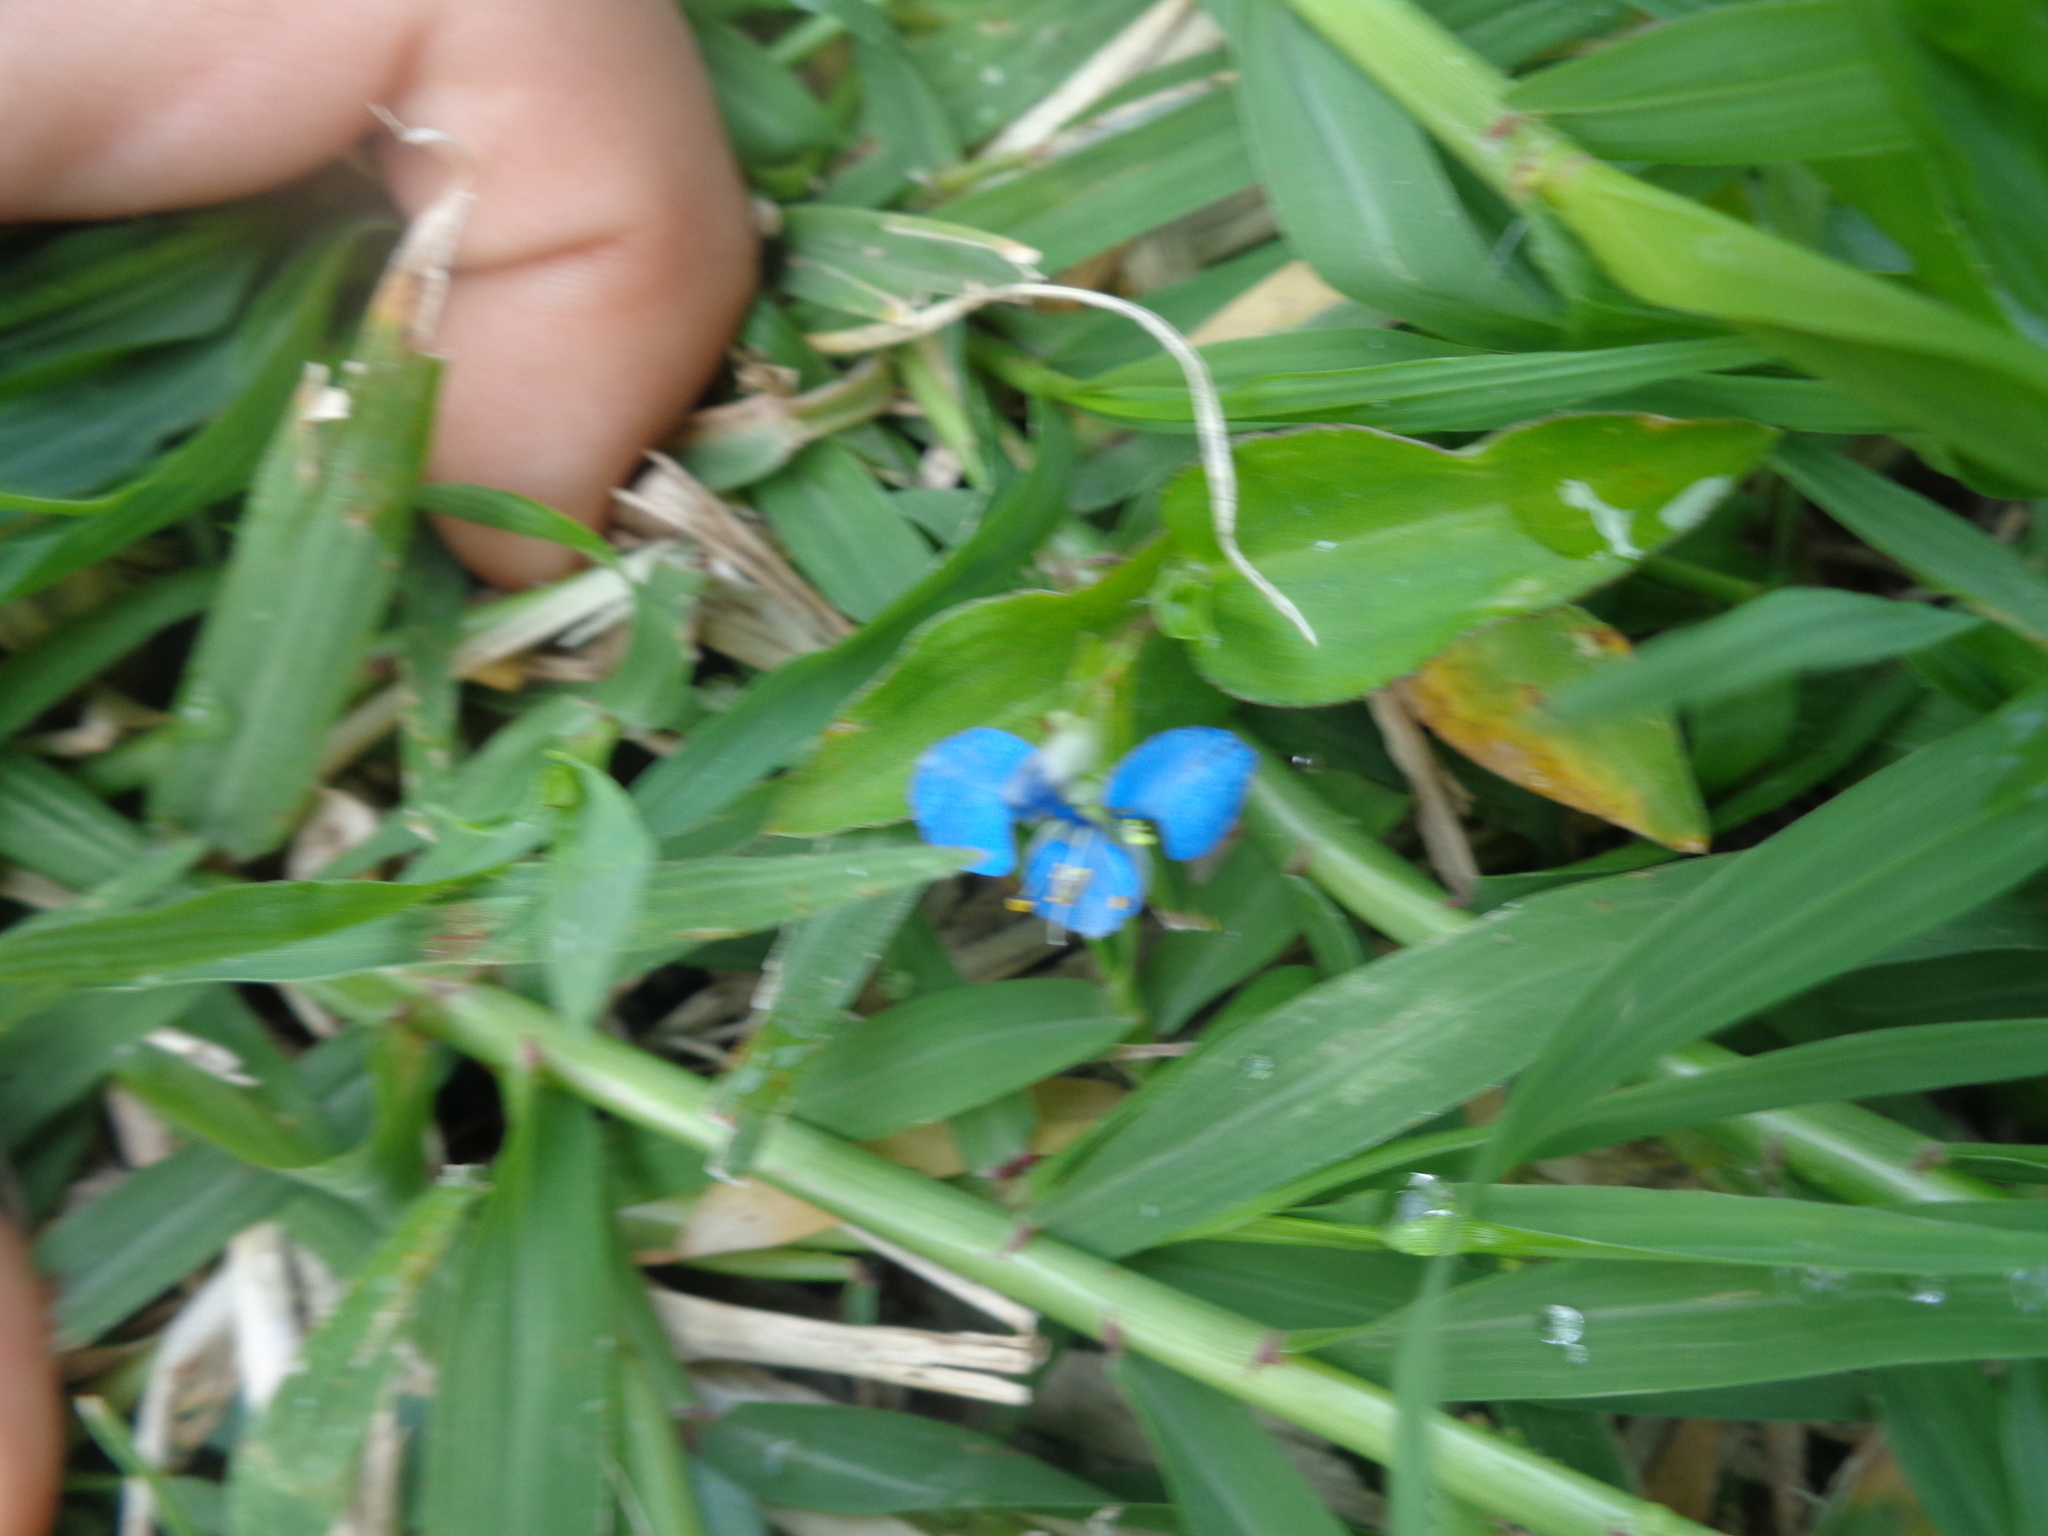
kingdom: Plantae
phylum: Tracheophyta
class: Liliopsida
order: Commelinales
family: Commelinaceae
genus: Commelina
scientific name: Commelina diffusa
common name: Climbing dayflower
